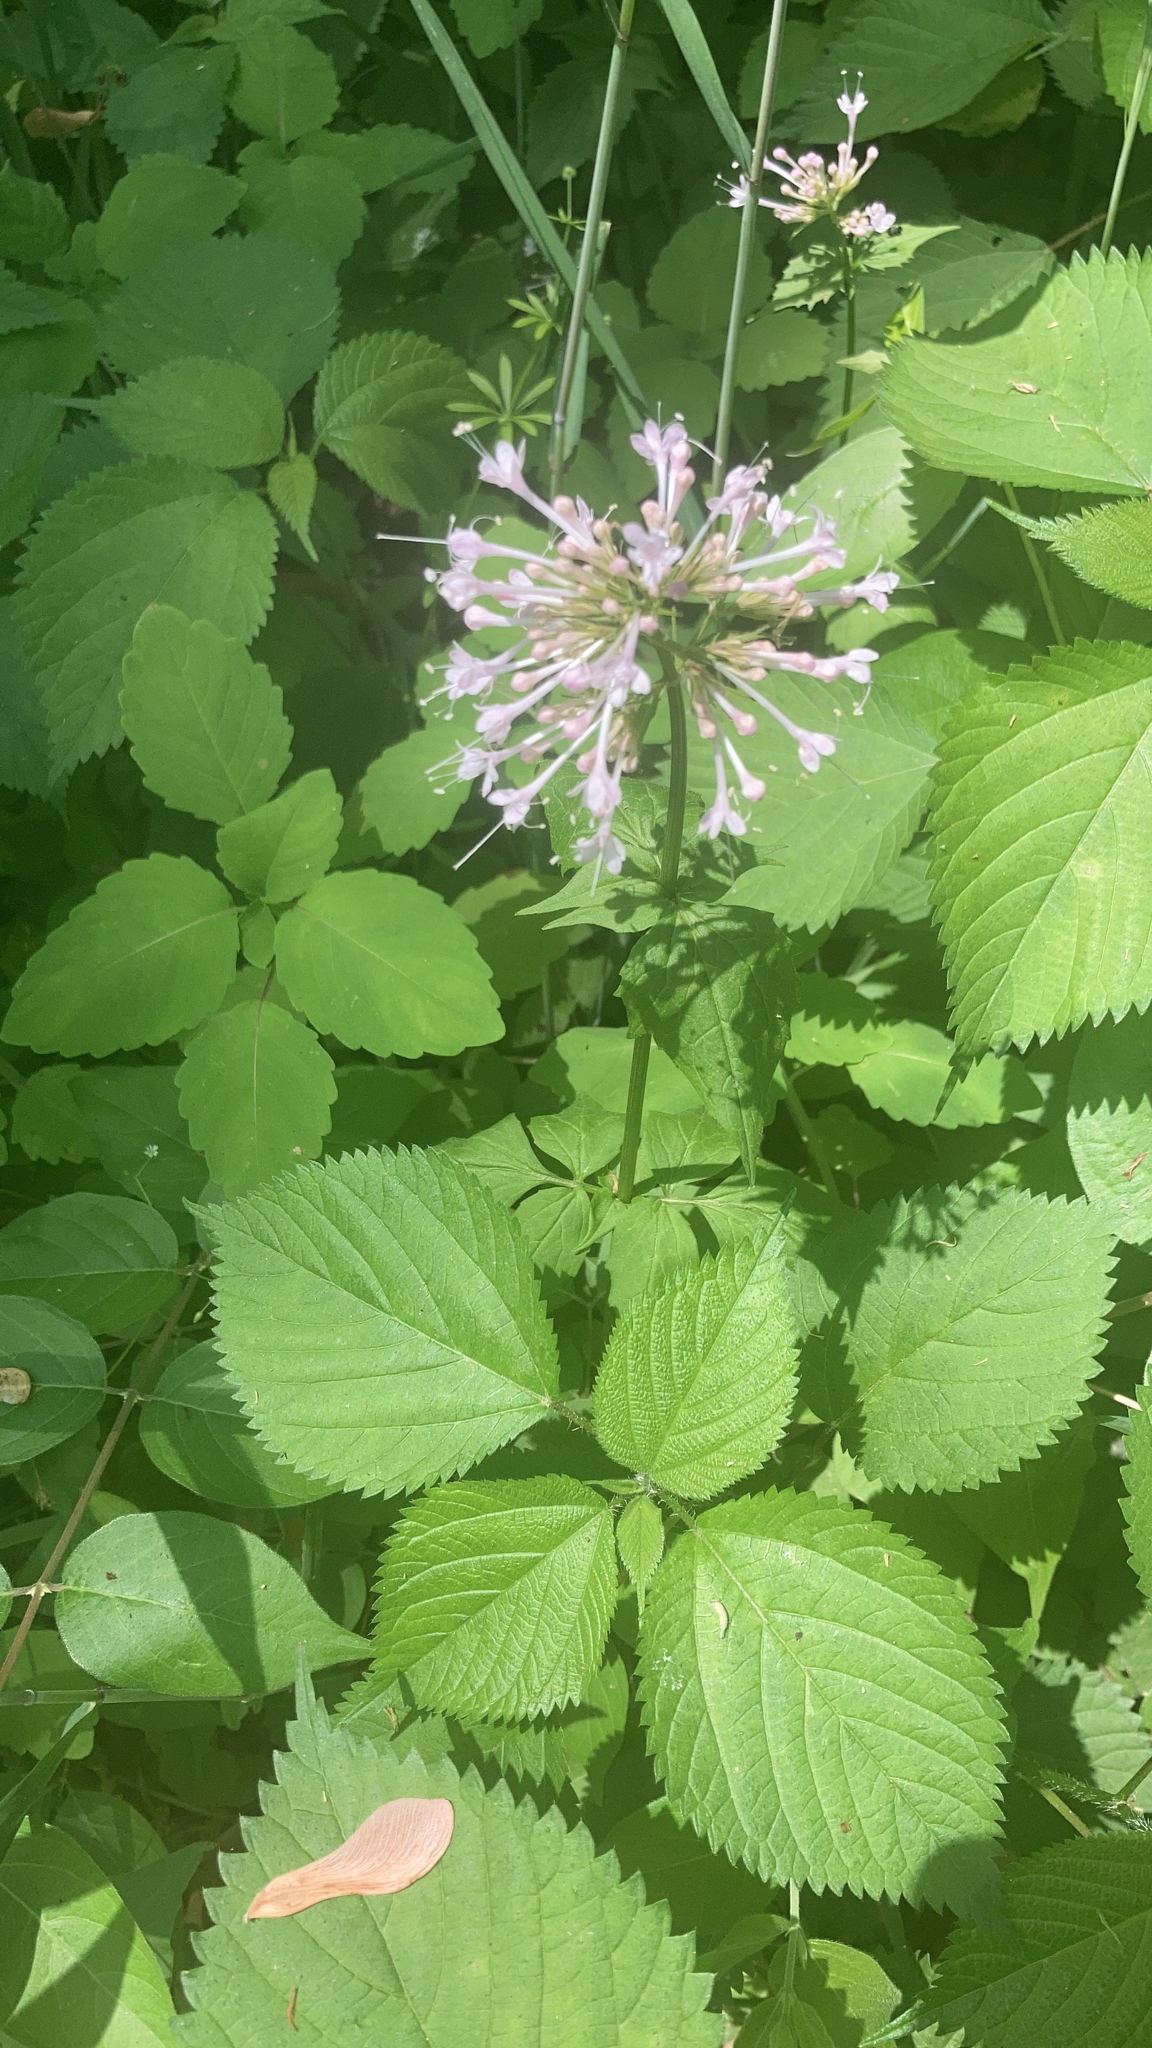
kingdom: Plantae
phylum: Tracheophyta
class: Magnoliopsida
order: Dipsacales
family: Caprifoliaceae
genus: Valeriana
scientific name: Valeriana pauciflora
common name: Long-tube valeriana
